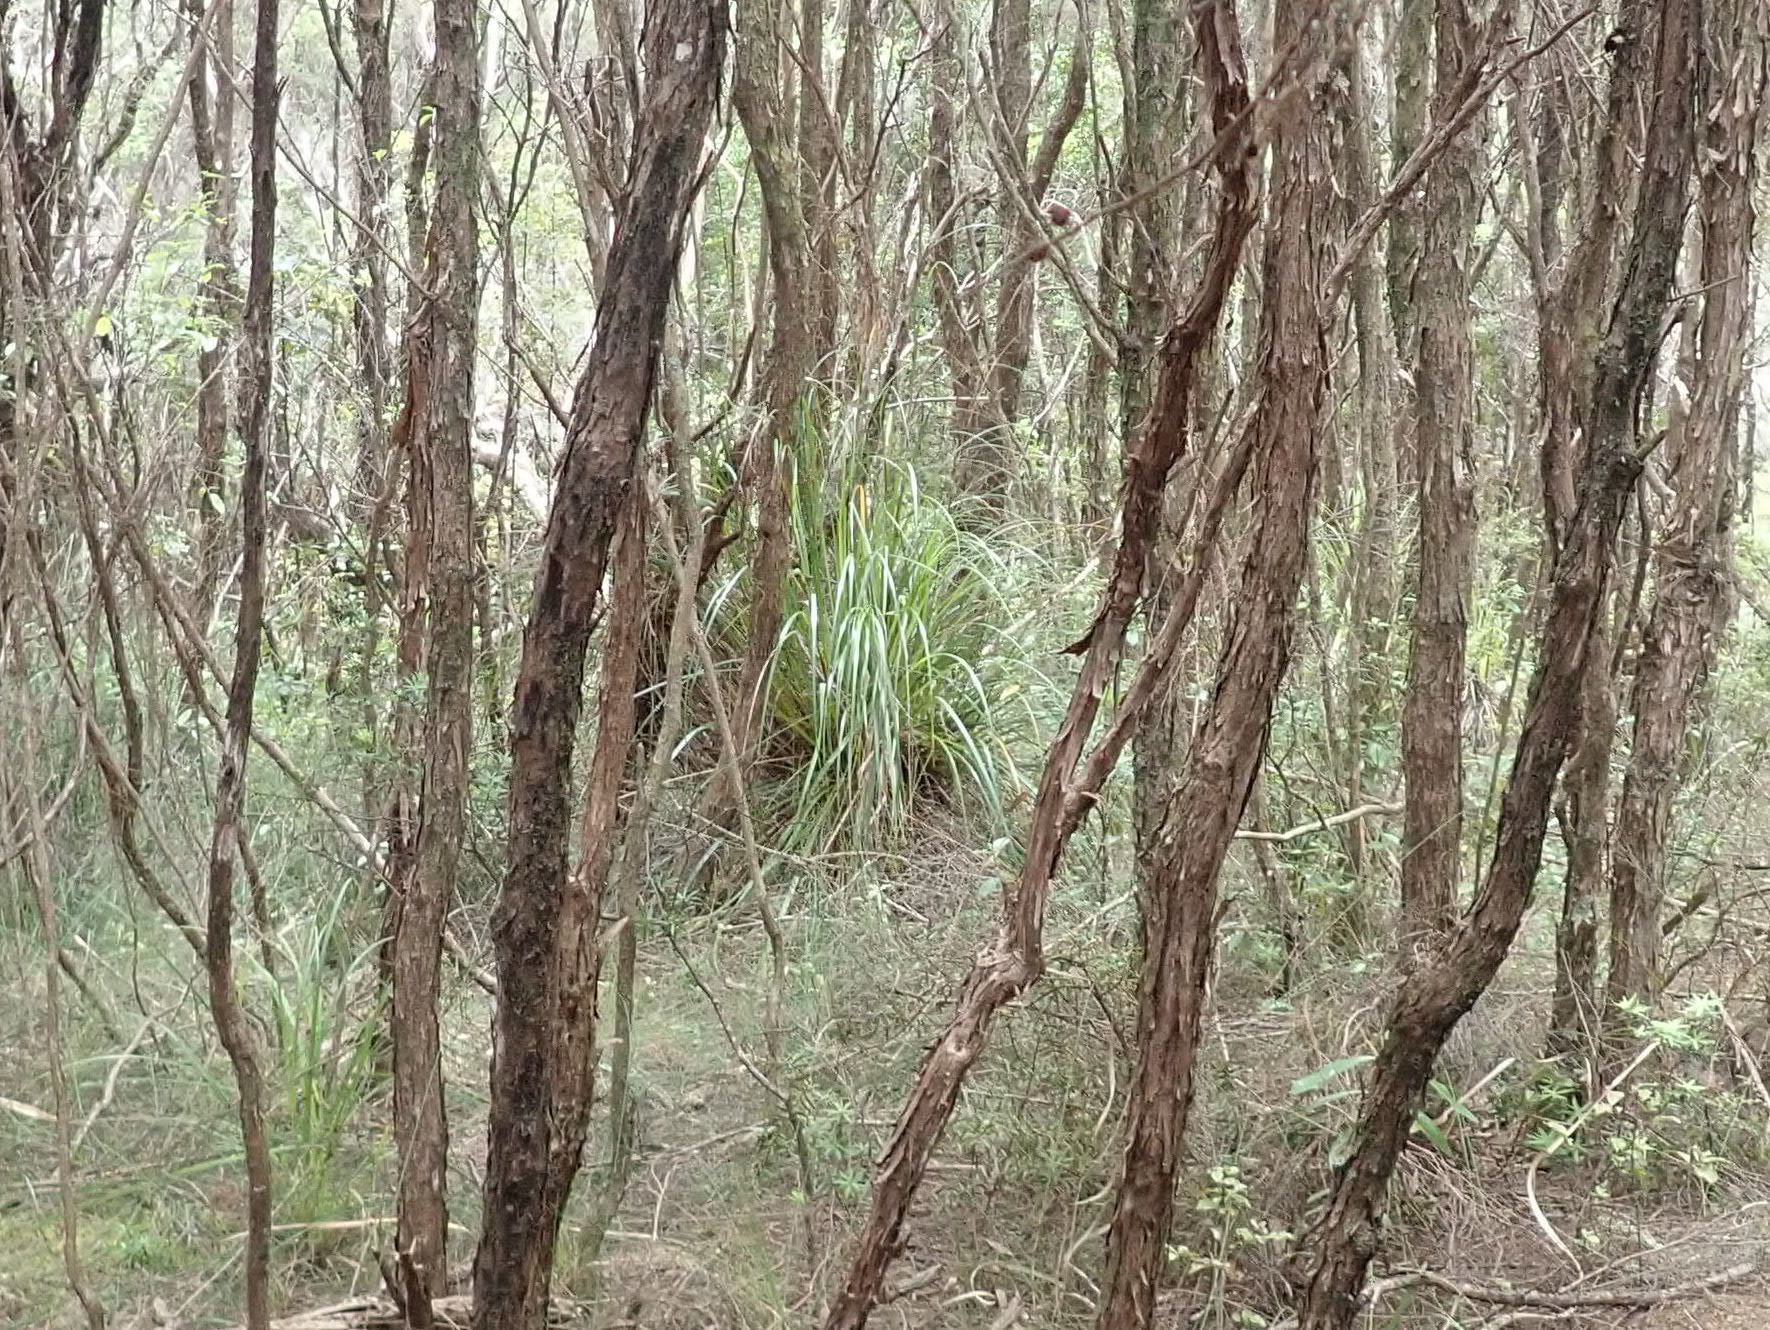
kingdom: Plantae
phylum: Tracheophyta
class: Magnoliopsida
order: Myrtales
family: Myrtaceae
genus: Kunzea
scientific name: Kunzea robusta
